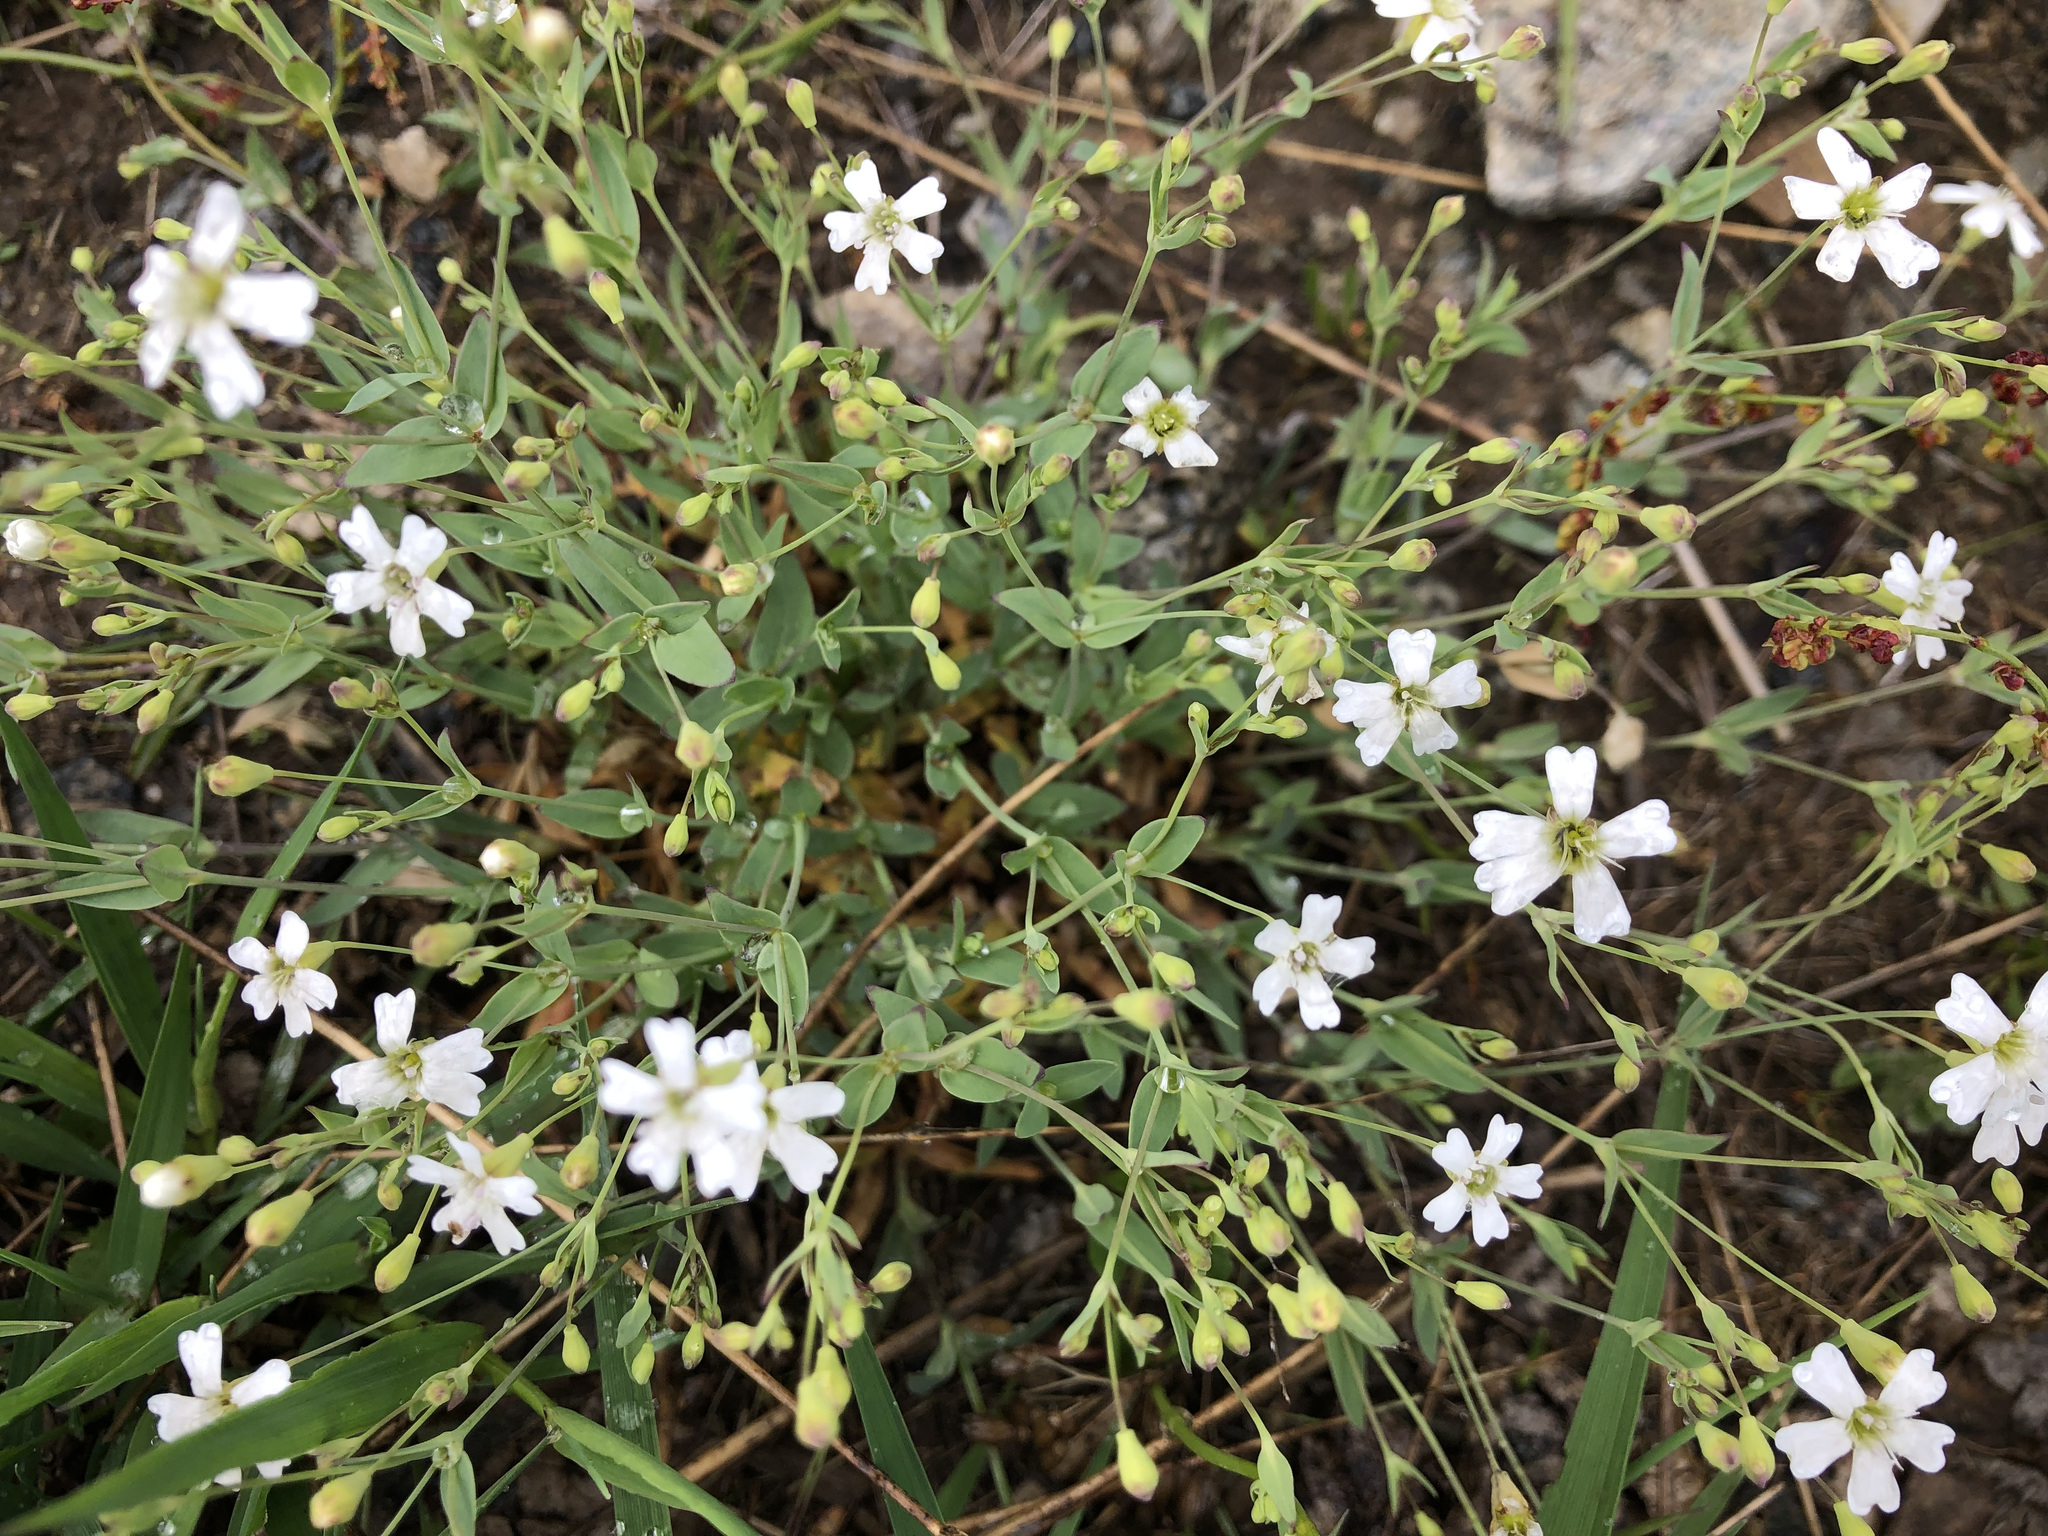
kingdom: Plantae
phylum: Tracheophyta
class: Magnoliopsida
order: Caryophyllales
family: Caryophyllaceae
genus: Atocion
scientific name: Atocion rupestre
